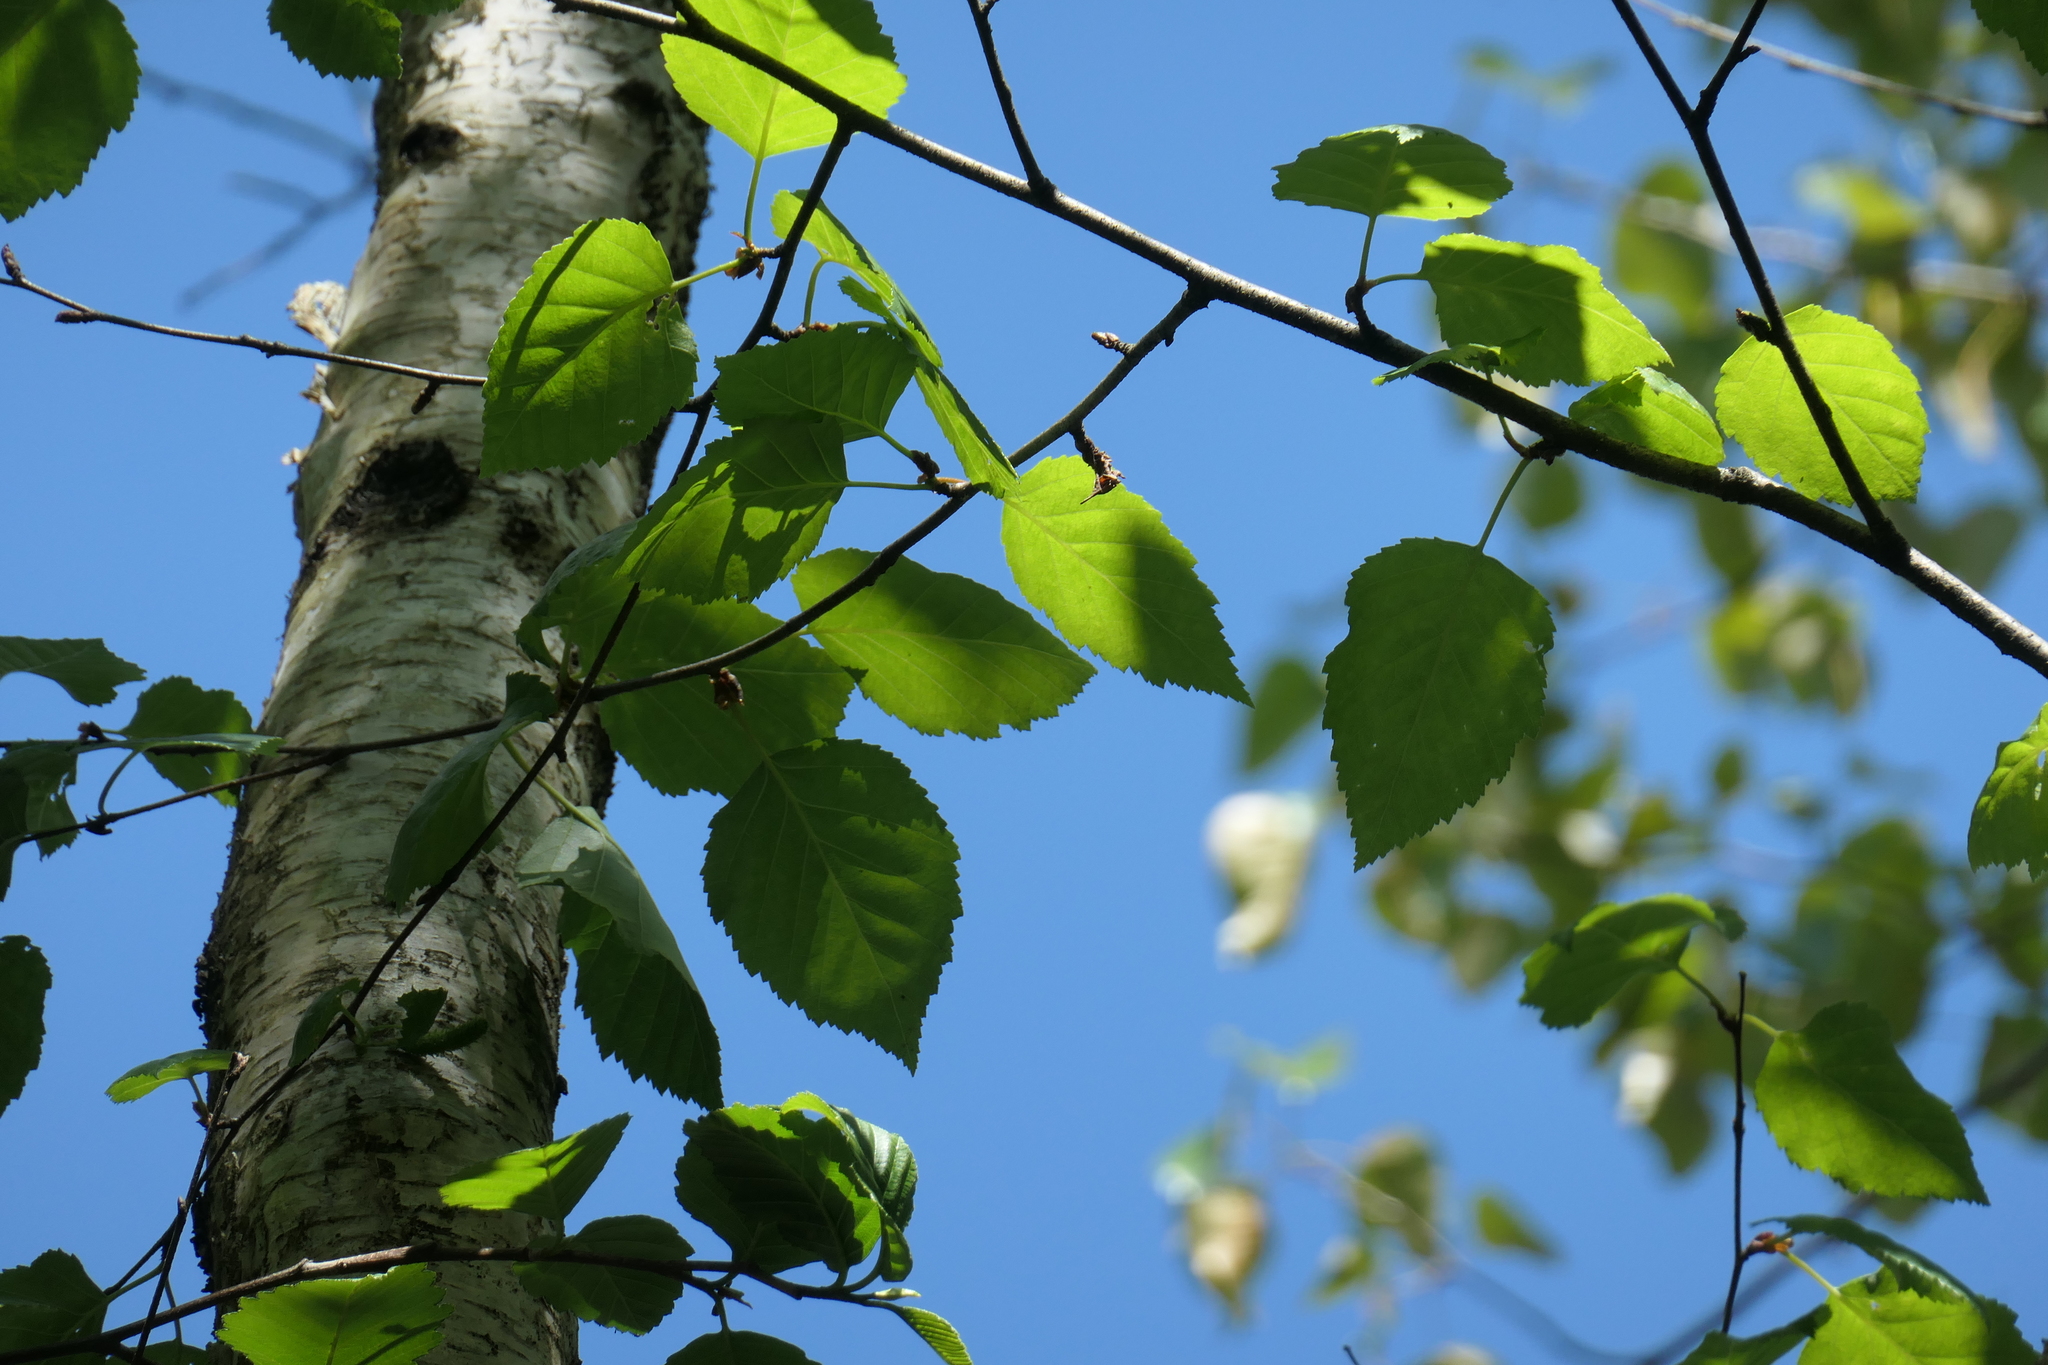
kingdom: Plantae
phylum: Tracheophyta
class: Magnoliopsida
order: Fagales
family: Betulaceae
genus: Betula
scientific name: Betula papyrifera
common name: Paper birch
